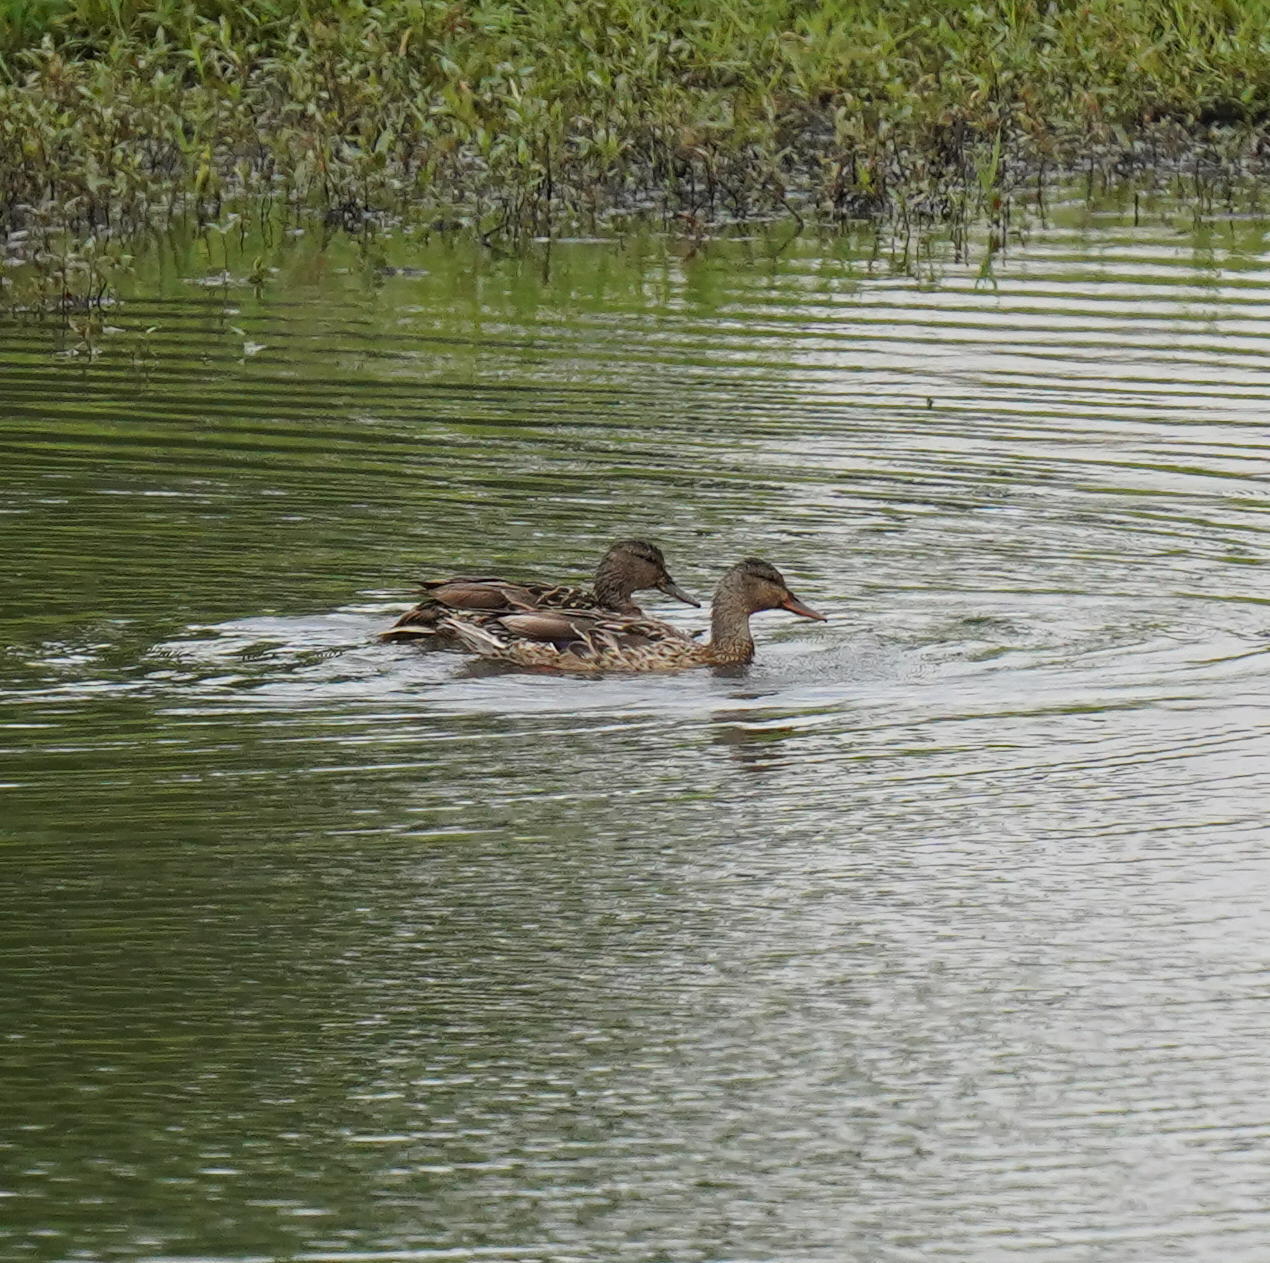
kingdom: Animalia
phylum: Chordata
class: Aves
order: Anseriformes
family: Anatidae
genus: Anas
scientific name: Anas platyrhynchos
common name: Mallard
